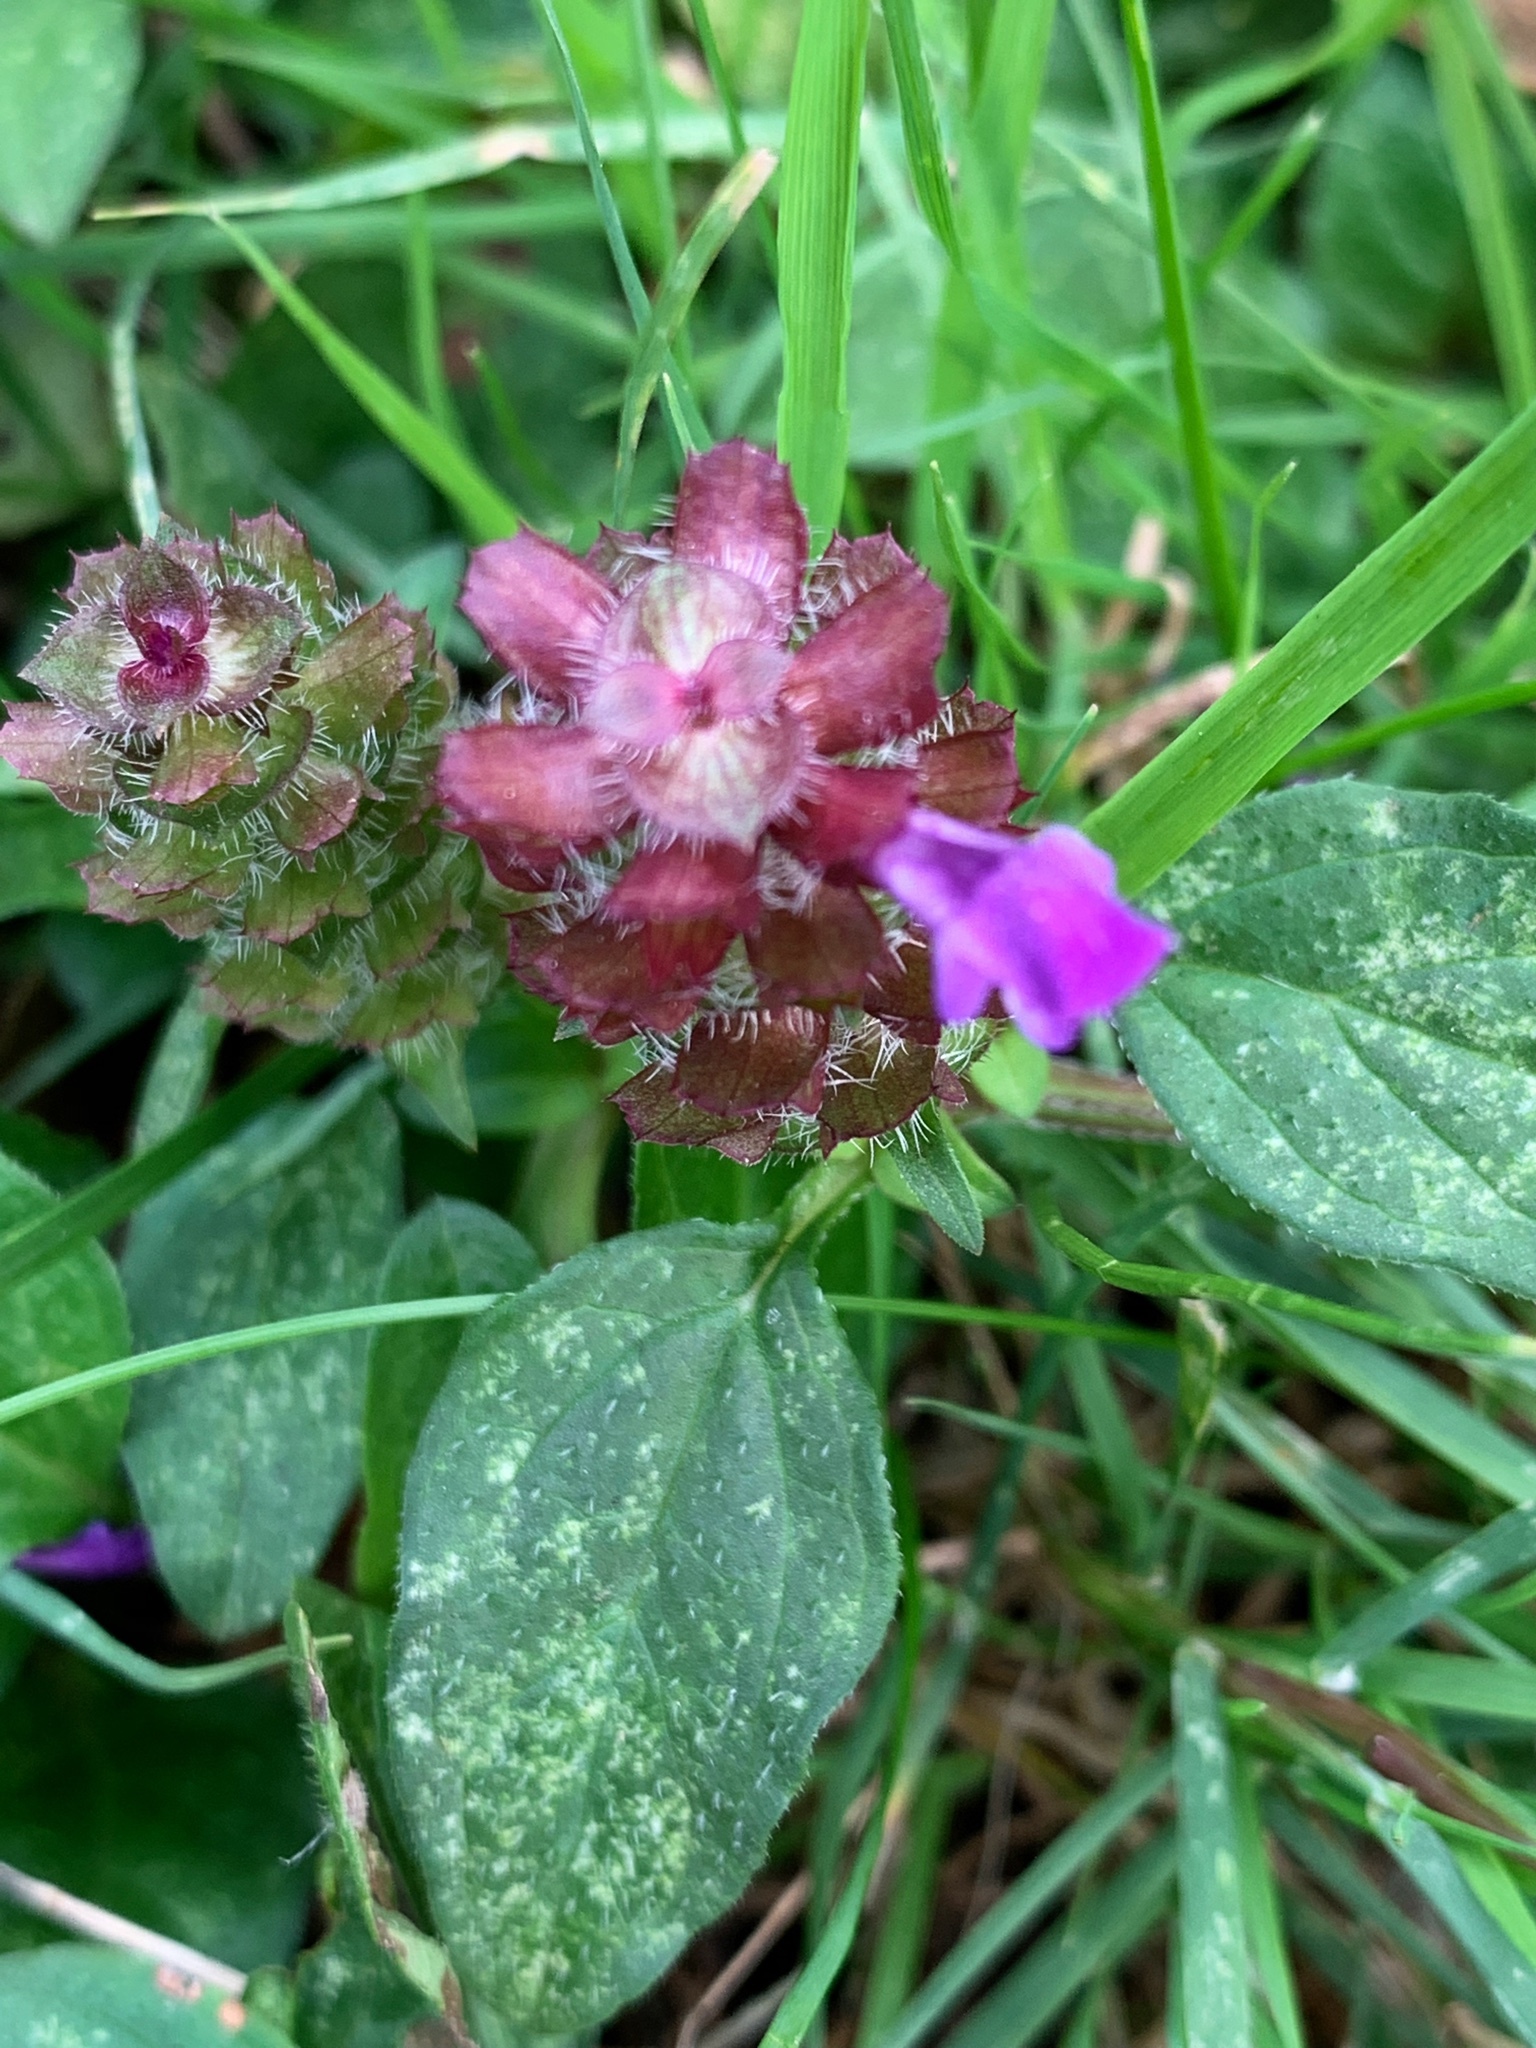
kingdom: Plantae
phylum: Tracheophyta
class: Magnoliopsida
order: Lamiales
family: Lamiaceae
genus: Prunella
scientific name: Prunella vulgaris
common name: Heal-all
